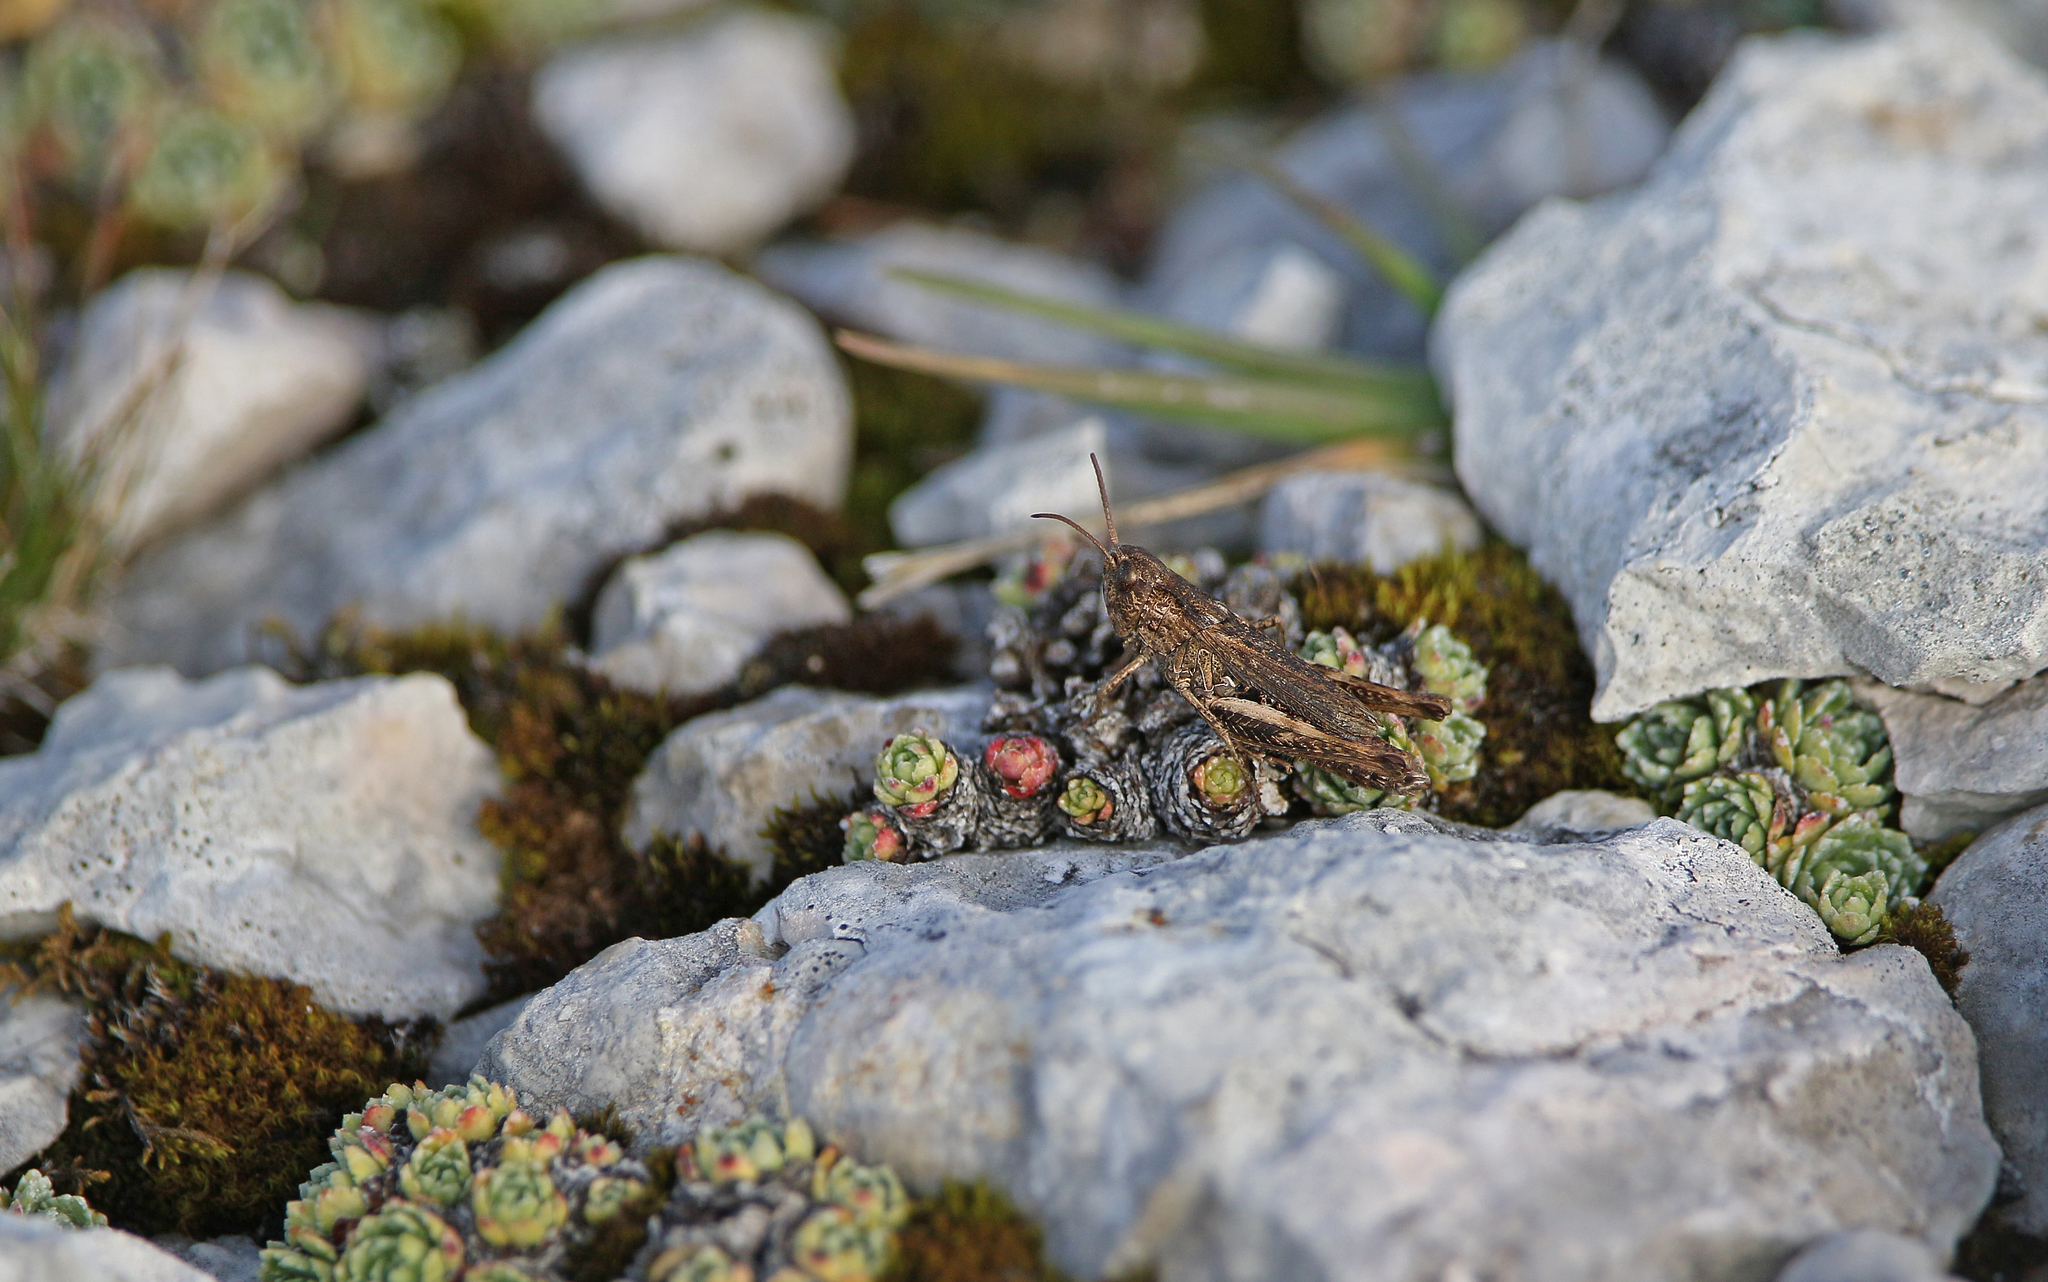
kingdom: Animalia
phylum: Arthropoda
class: Insecta
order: Orthoptera
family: Acrididae
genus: Chorthippus
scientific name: Chorthippus dorsatus
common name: Steppe grasshopper
